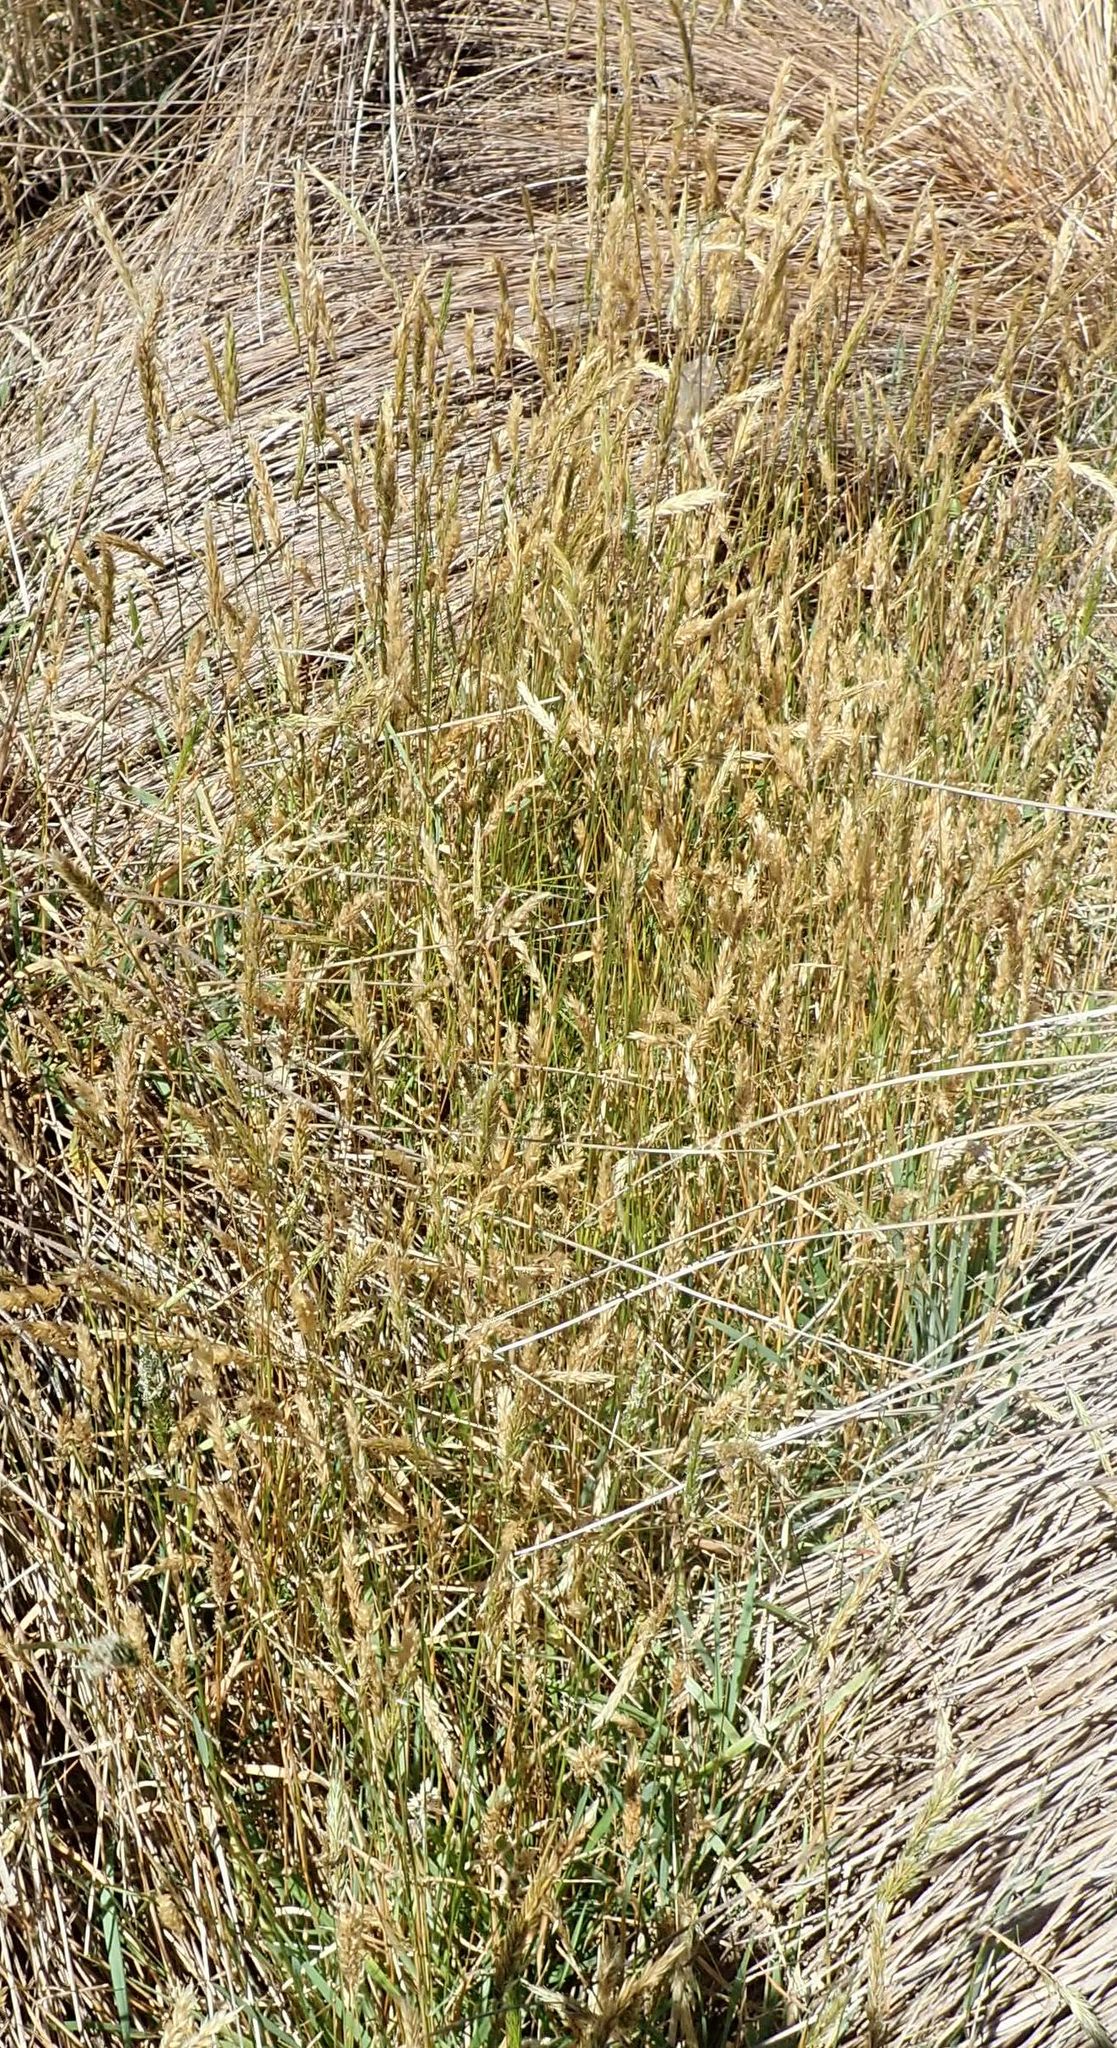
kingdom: Plantae
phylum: Tracheophyta
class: Liliopsida
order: Poales
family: Poaceae
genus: Anthoxanthum
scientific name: Anthoxanthum odoratum
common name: Sweet vernalgrass
